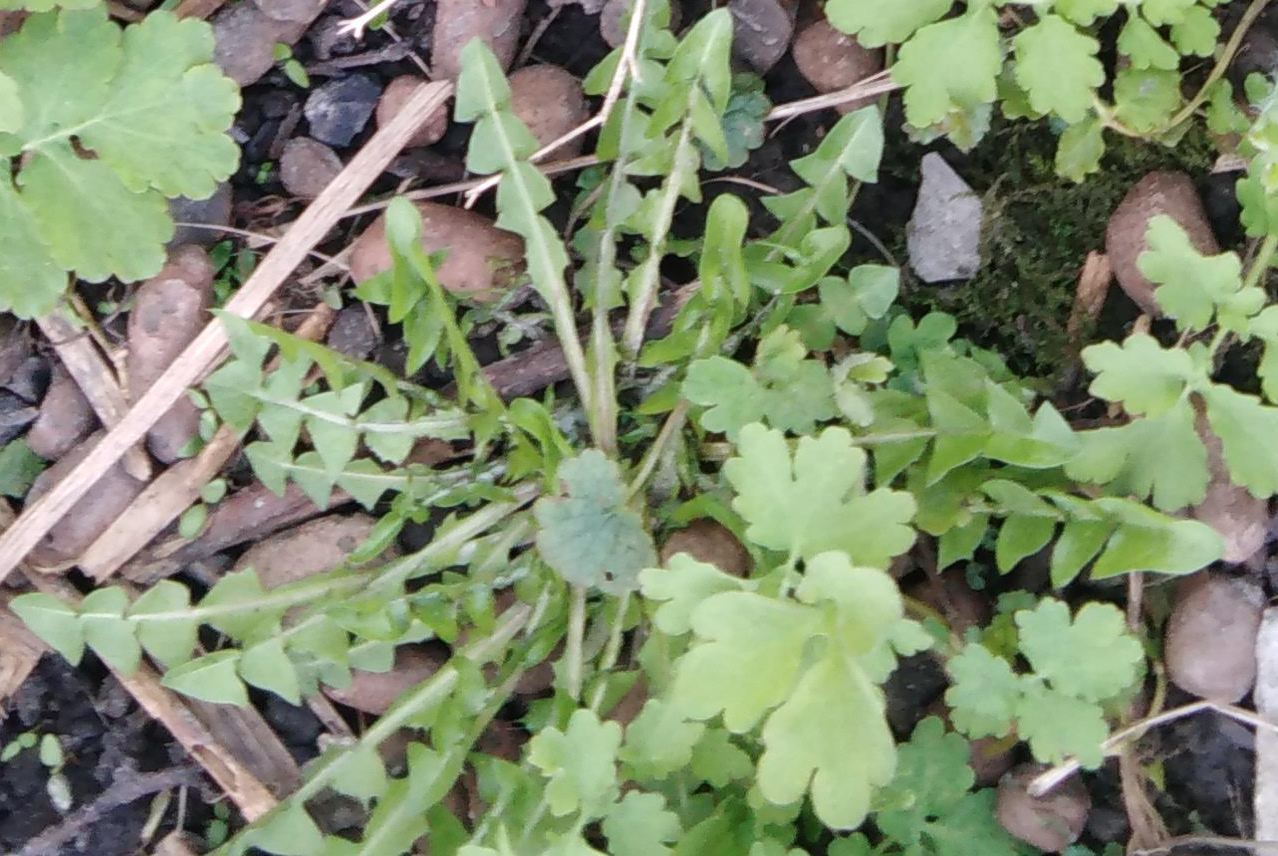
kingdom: Plantae
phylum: Tracheophyta
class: Magnoliopsida
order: Asterales
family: Asteraceae
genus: Taraxacum
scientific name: Taraxacum officinale
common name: Common dandelion
